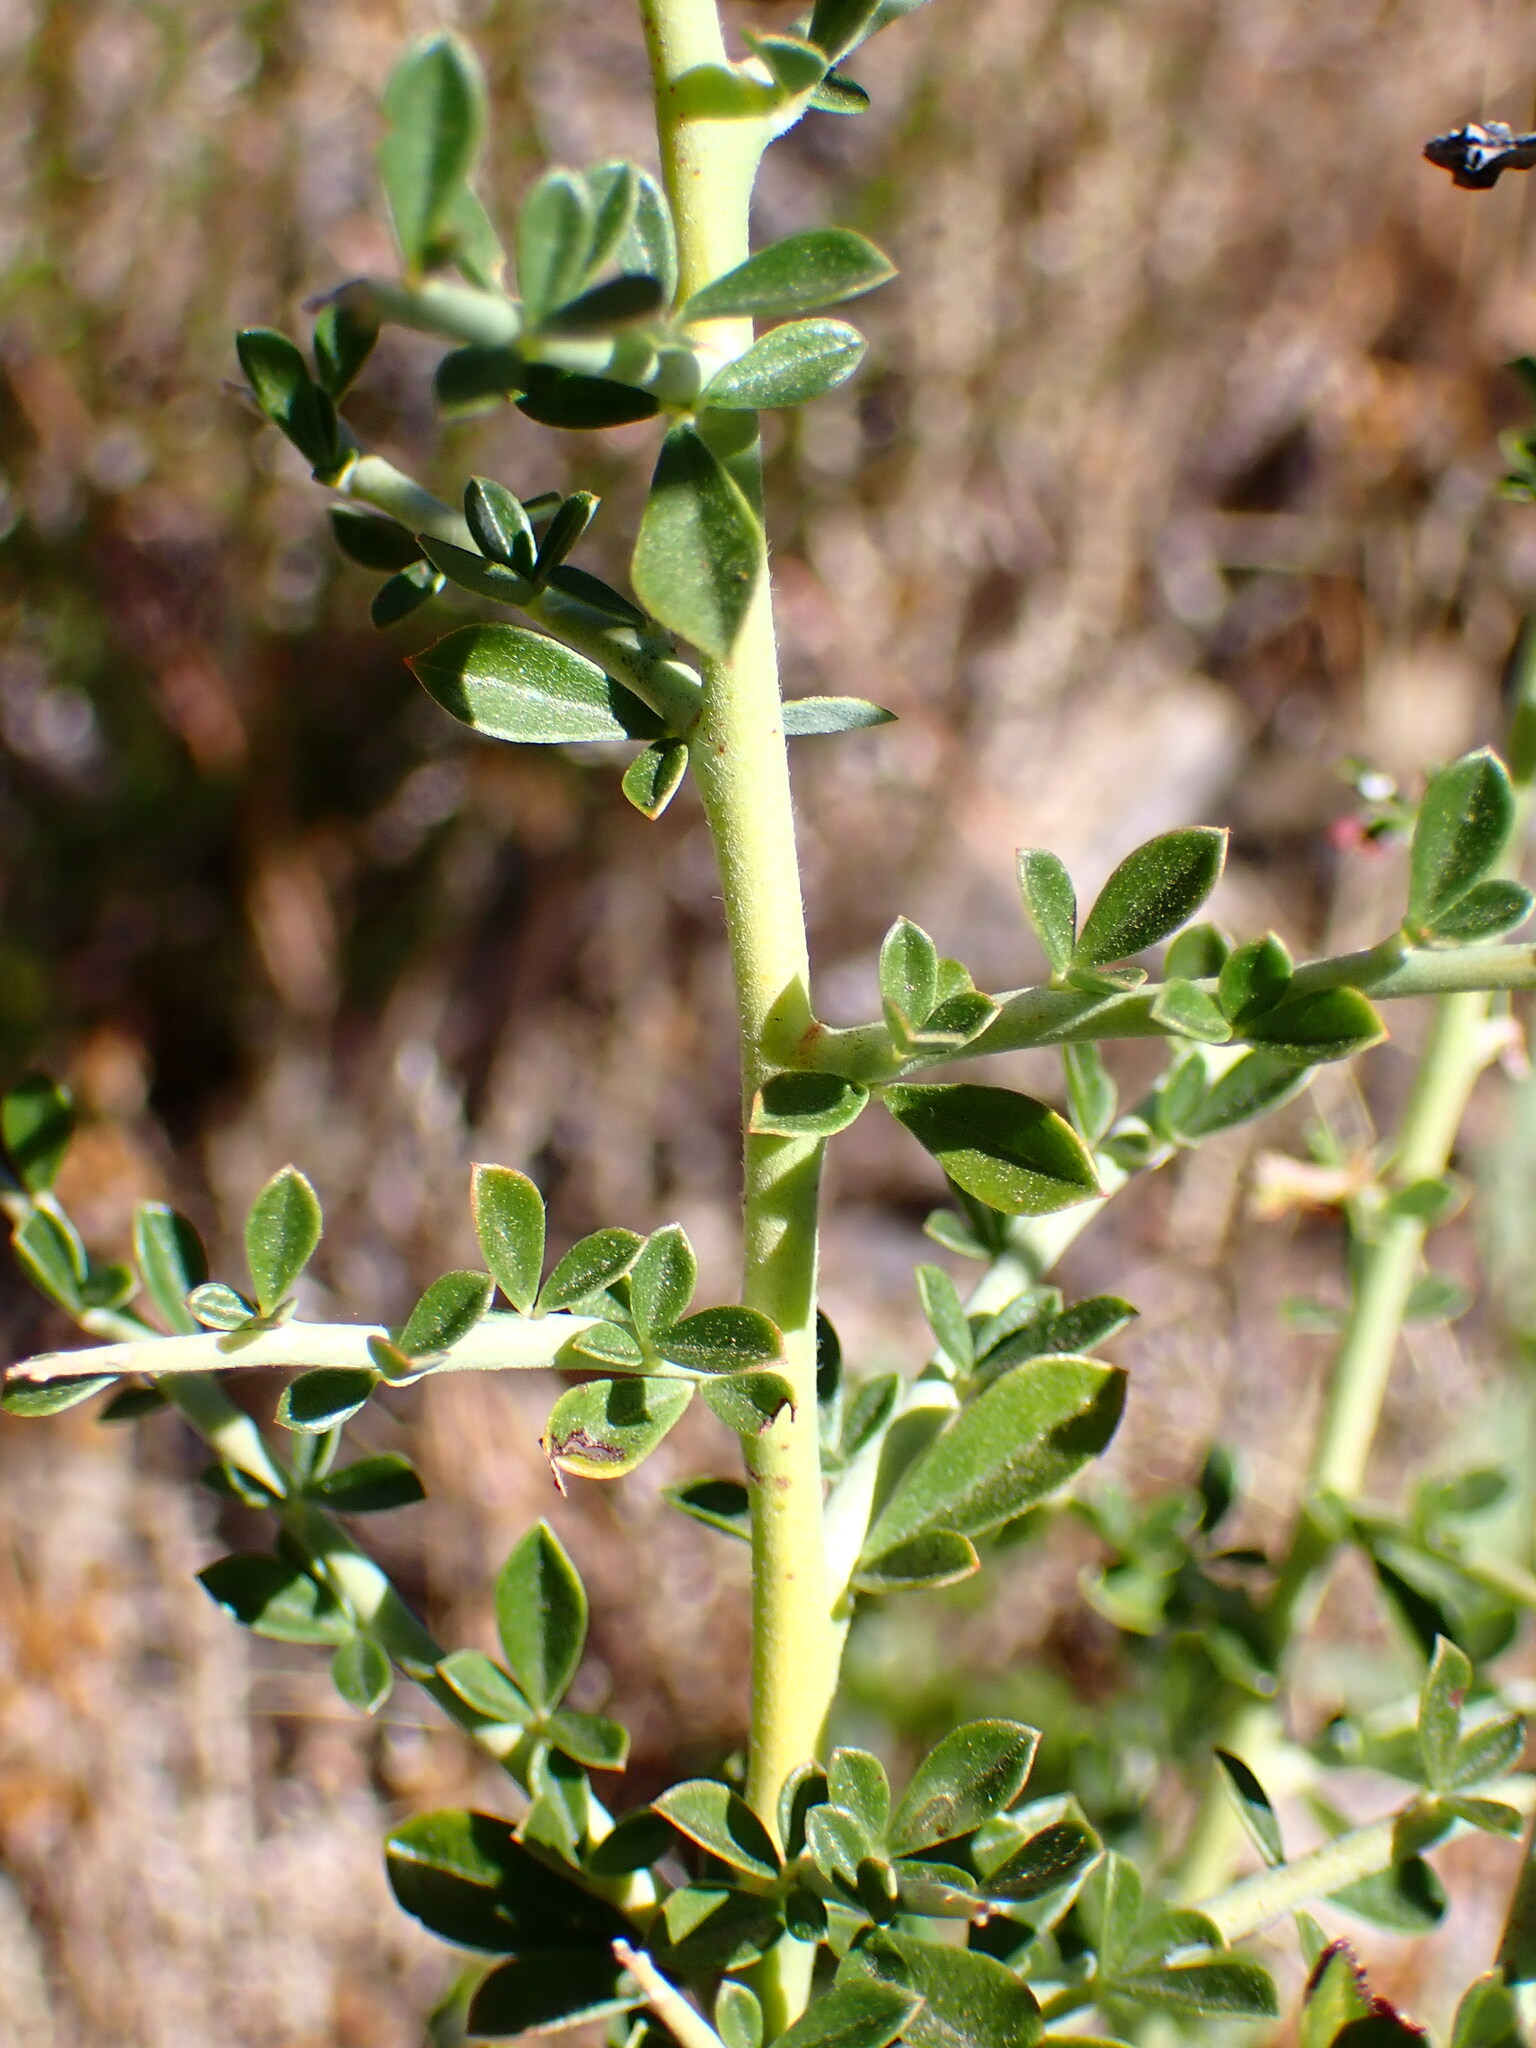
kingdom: Plantae
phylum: Tracheophyta
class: Magnoliopsida
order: Fabales
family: Fabaceae
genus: Pickeringia
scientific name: Pickeringia montana
